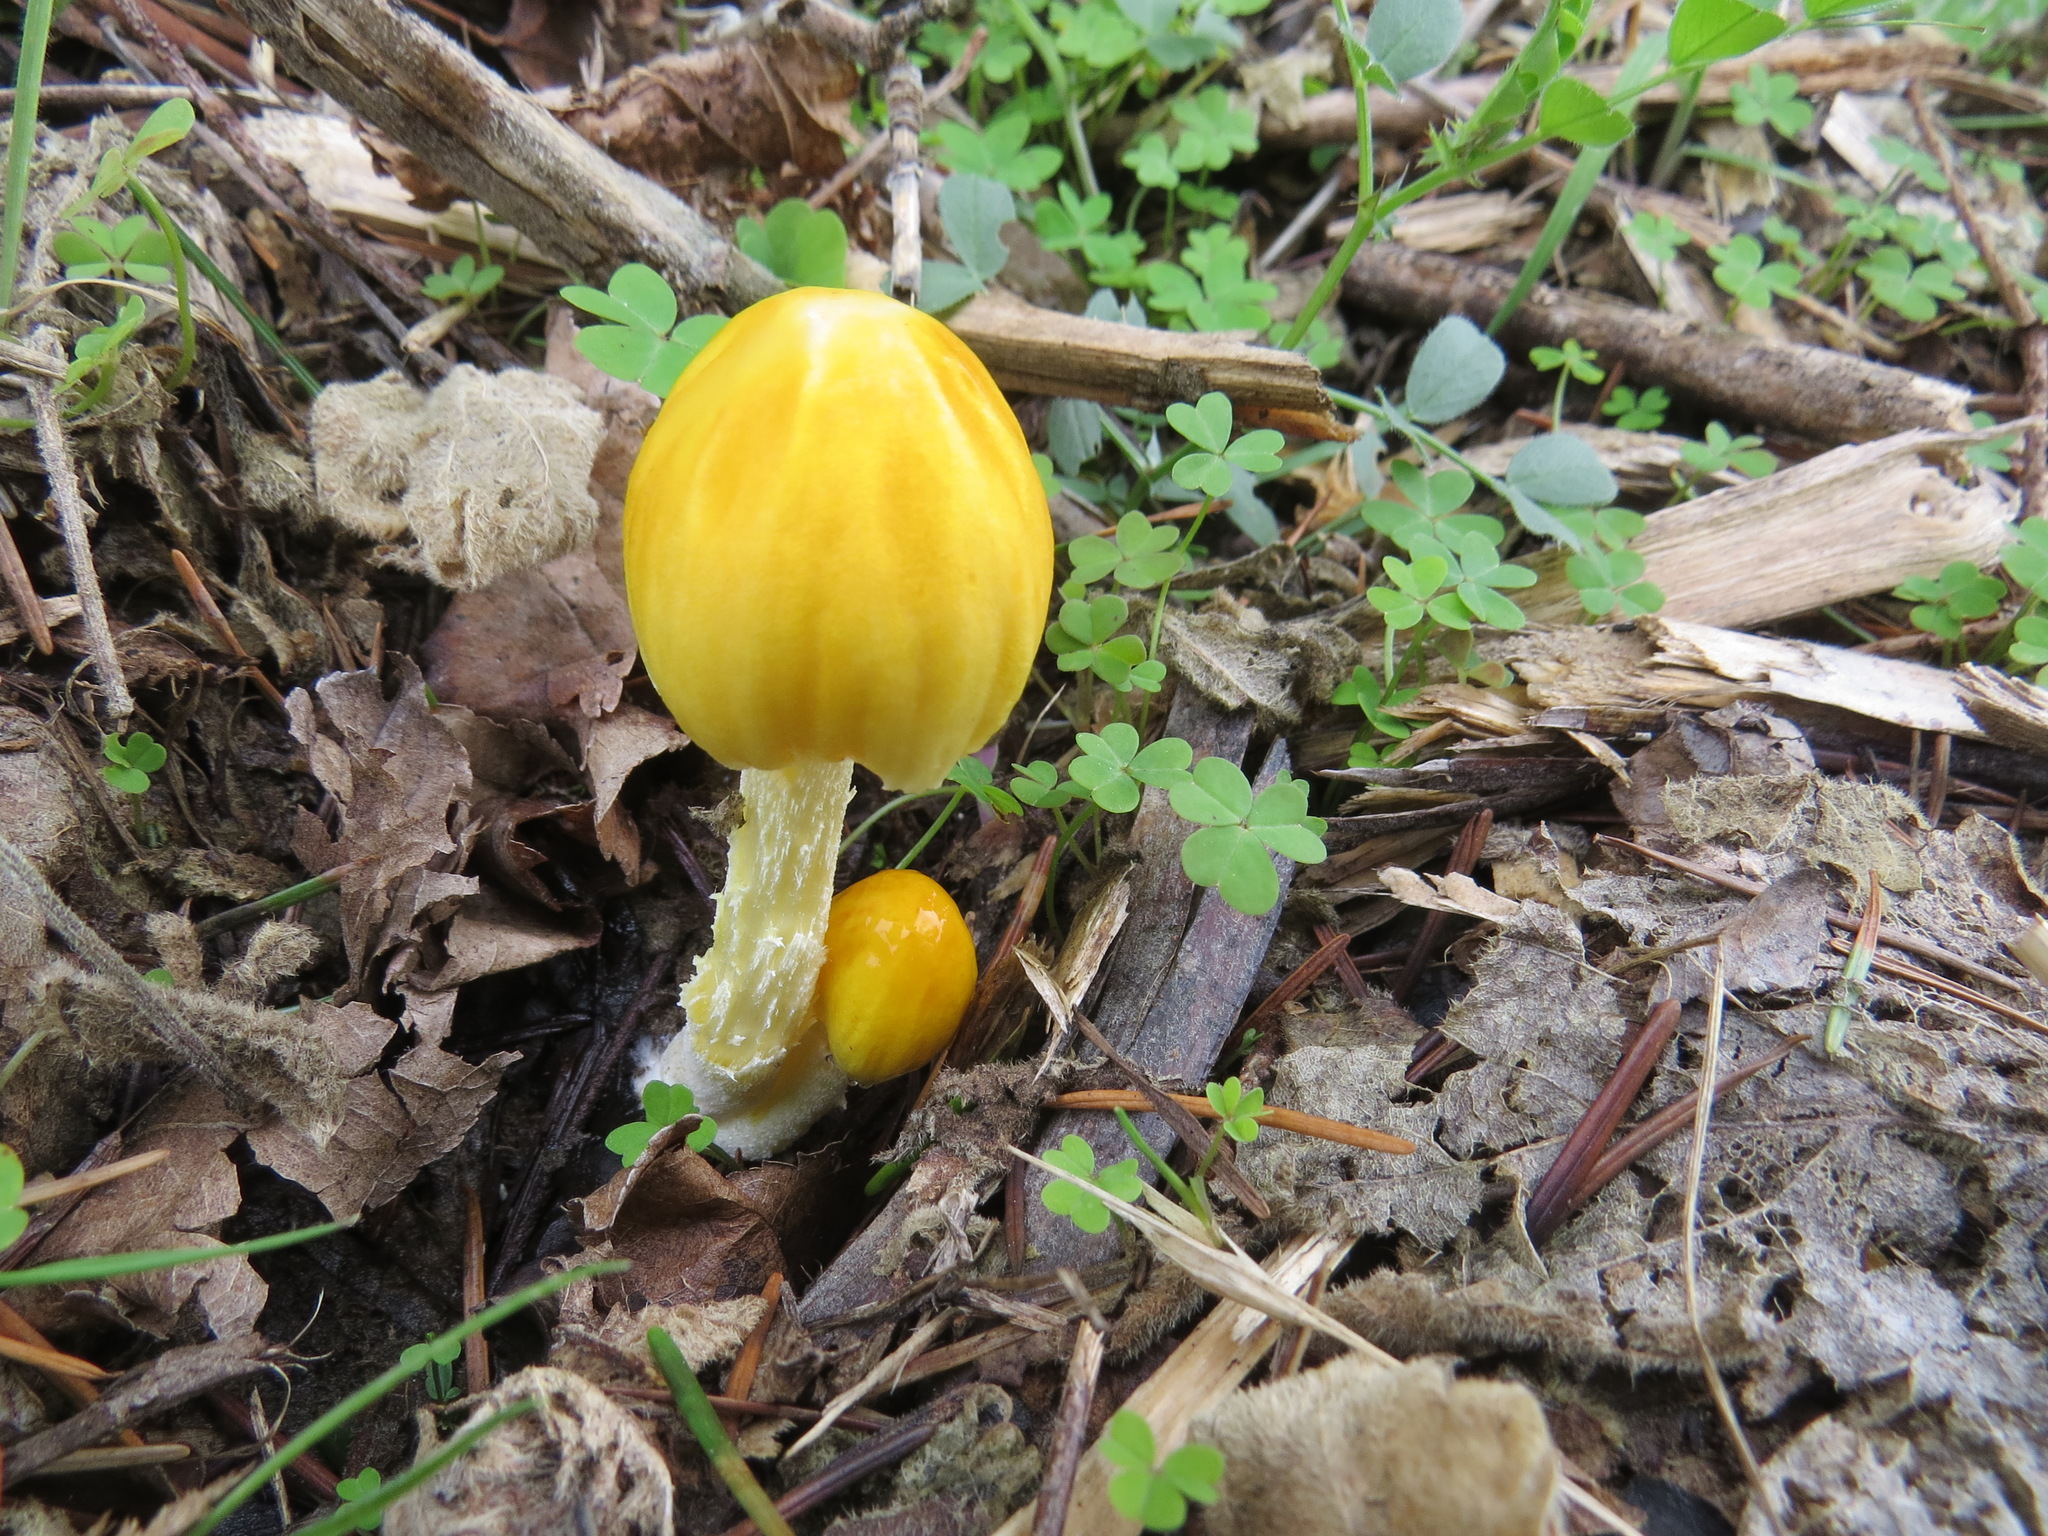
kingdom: Fungi
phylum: Basidiomycota
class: Agaricomycetes
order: Agaricales
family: Bolbitiaceae
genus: Bolbitius
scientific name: Bolbitius titubans
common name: Yellow fieldcap
